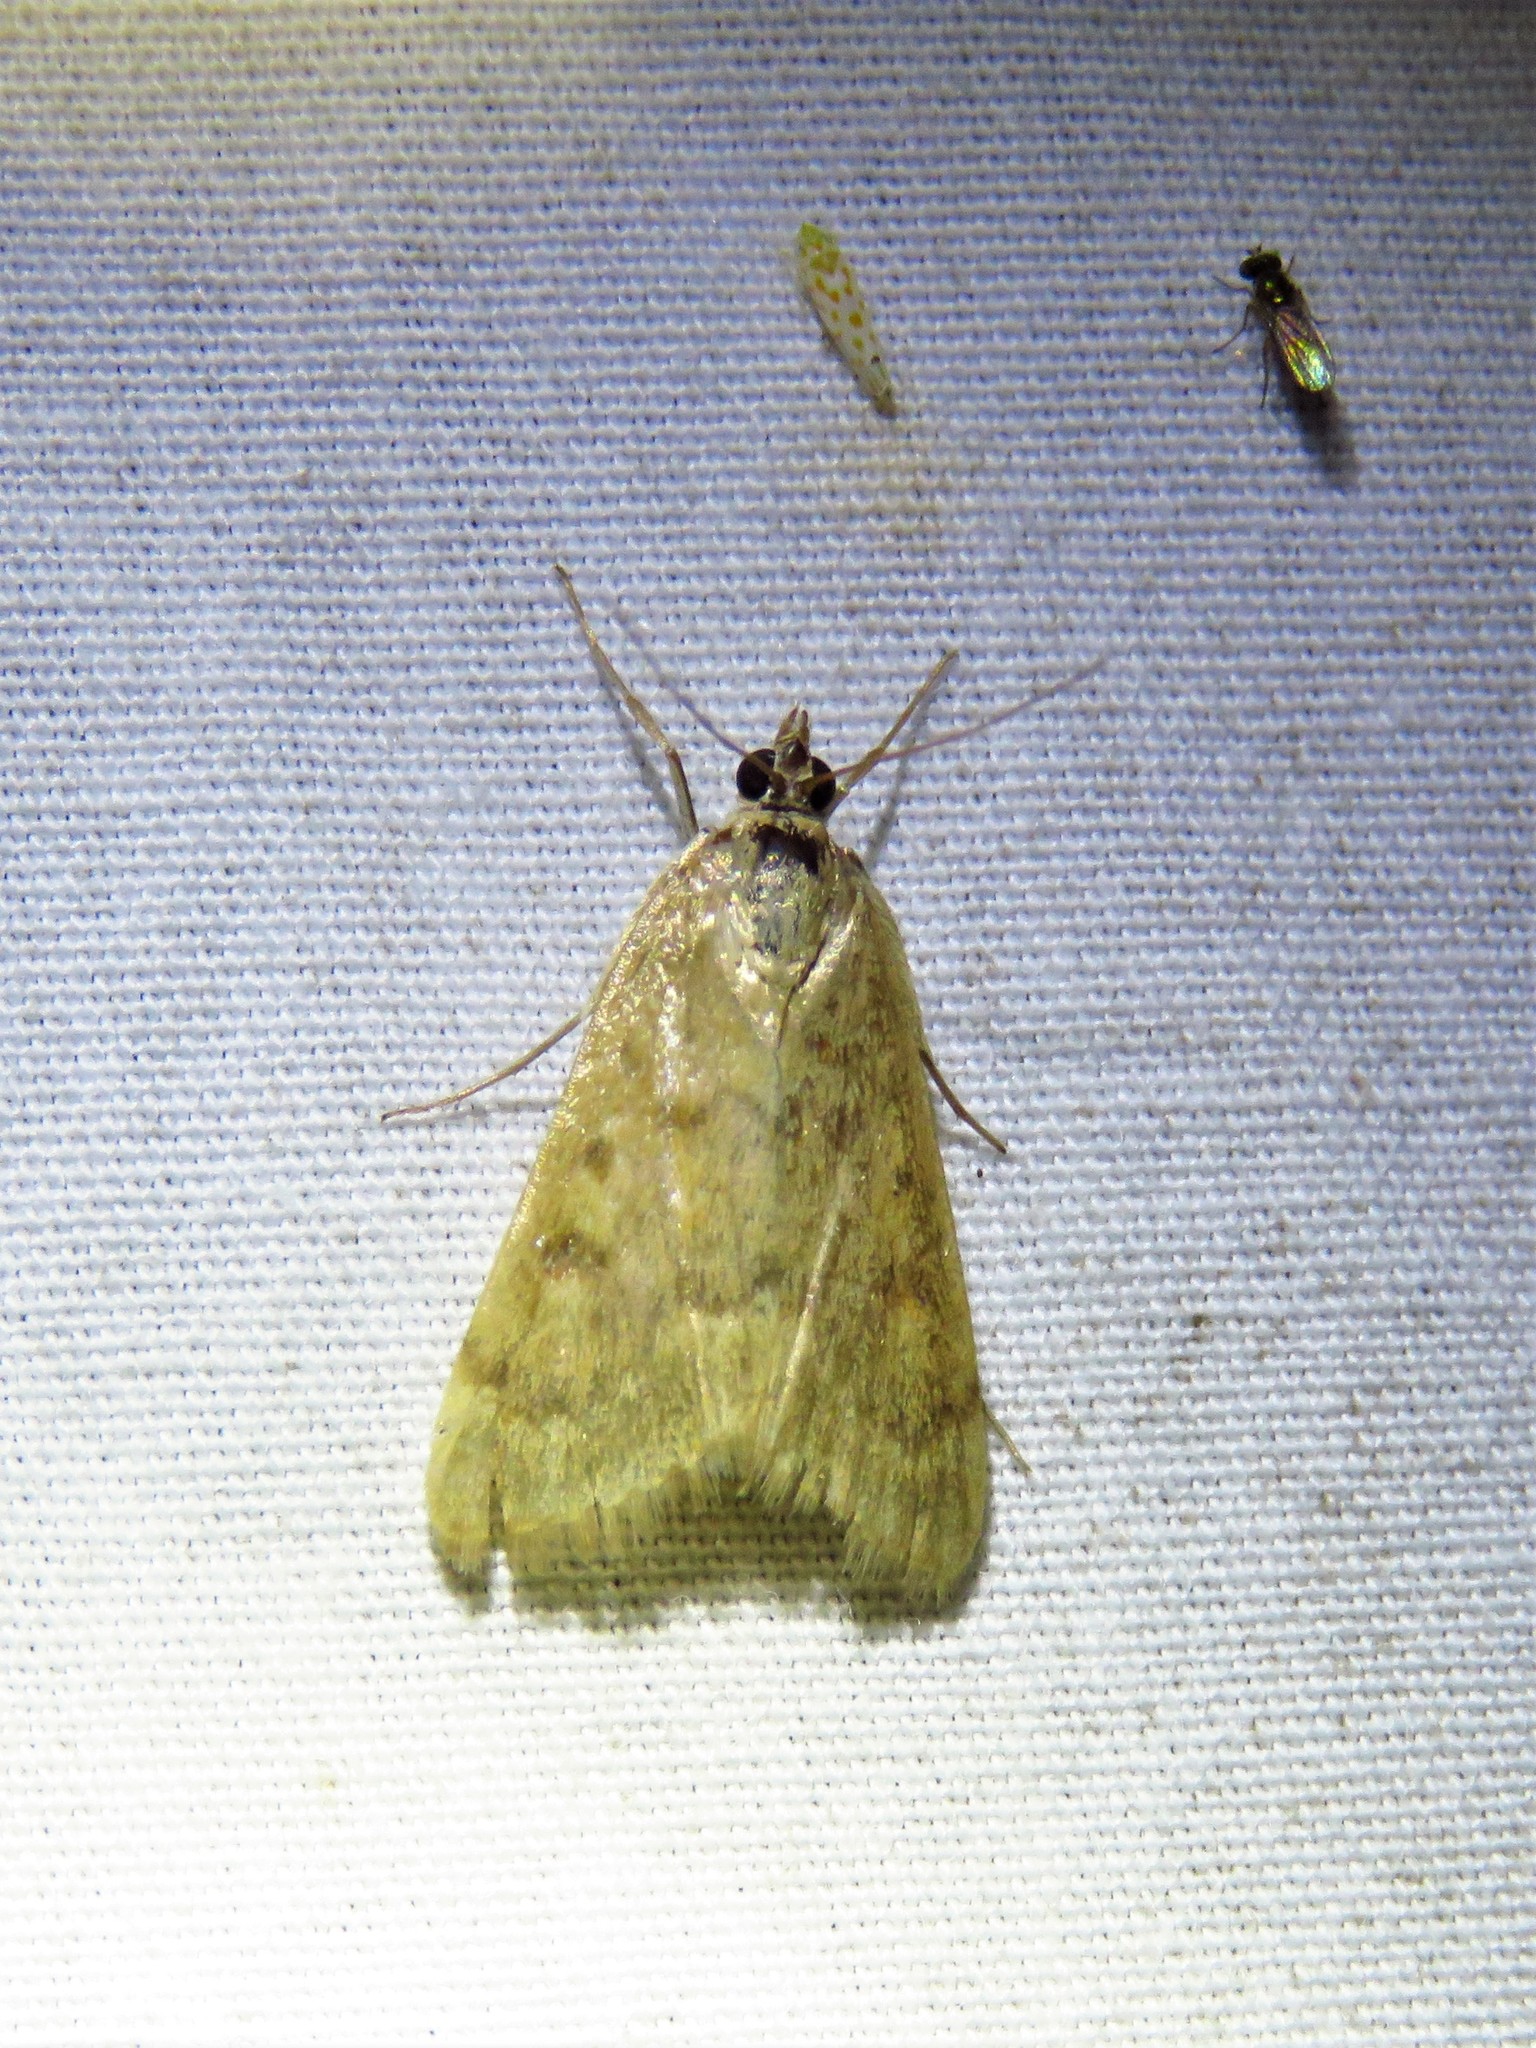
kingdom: Animalia
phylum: Arthropoda
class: Insecta
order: Lepidoptera
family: Crambidae
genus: Achyra
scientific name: Achyra rantalis
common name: Garden webworm
